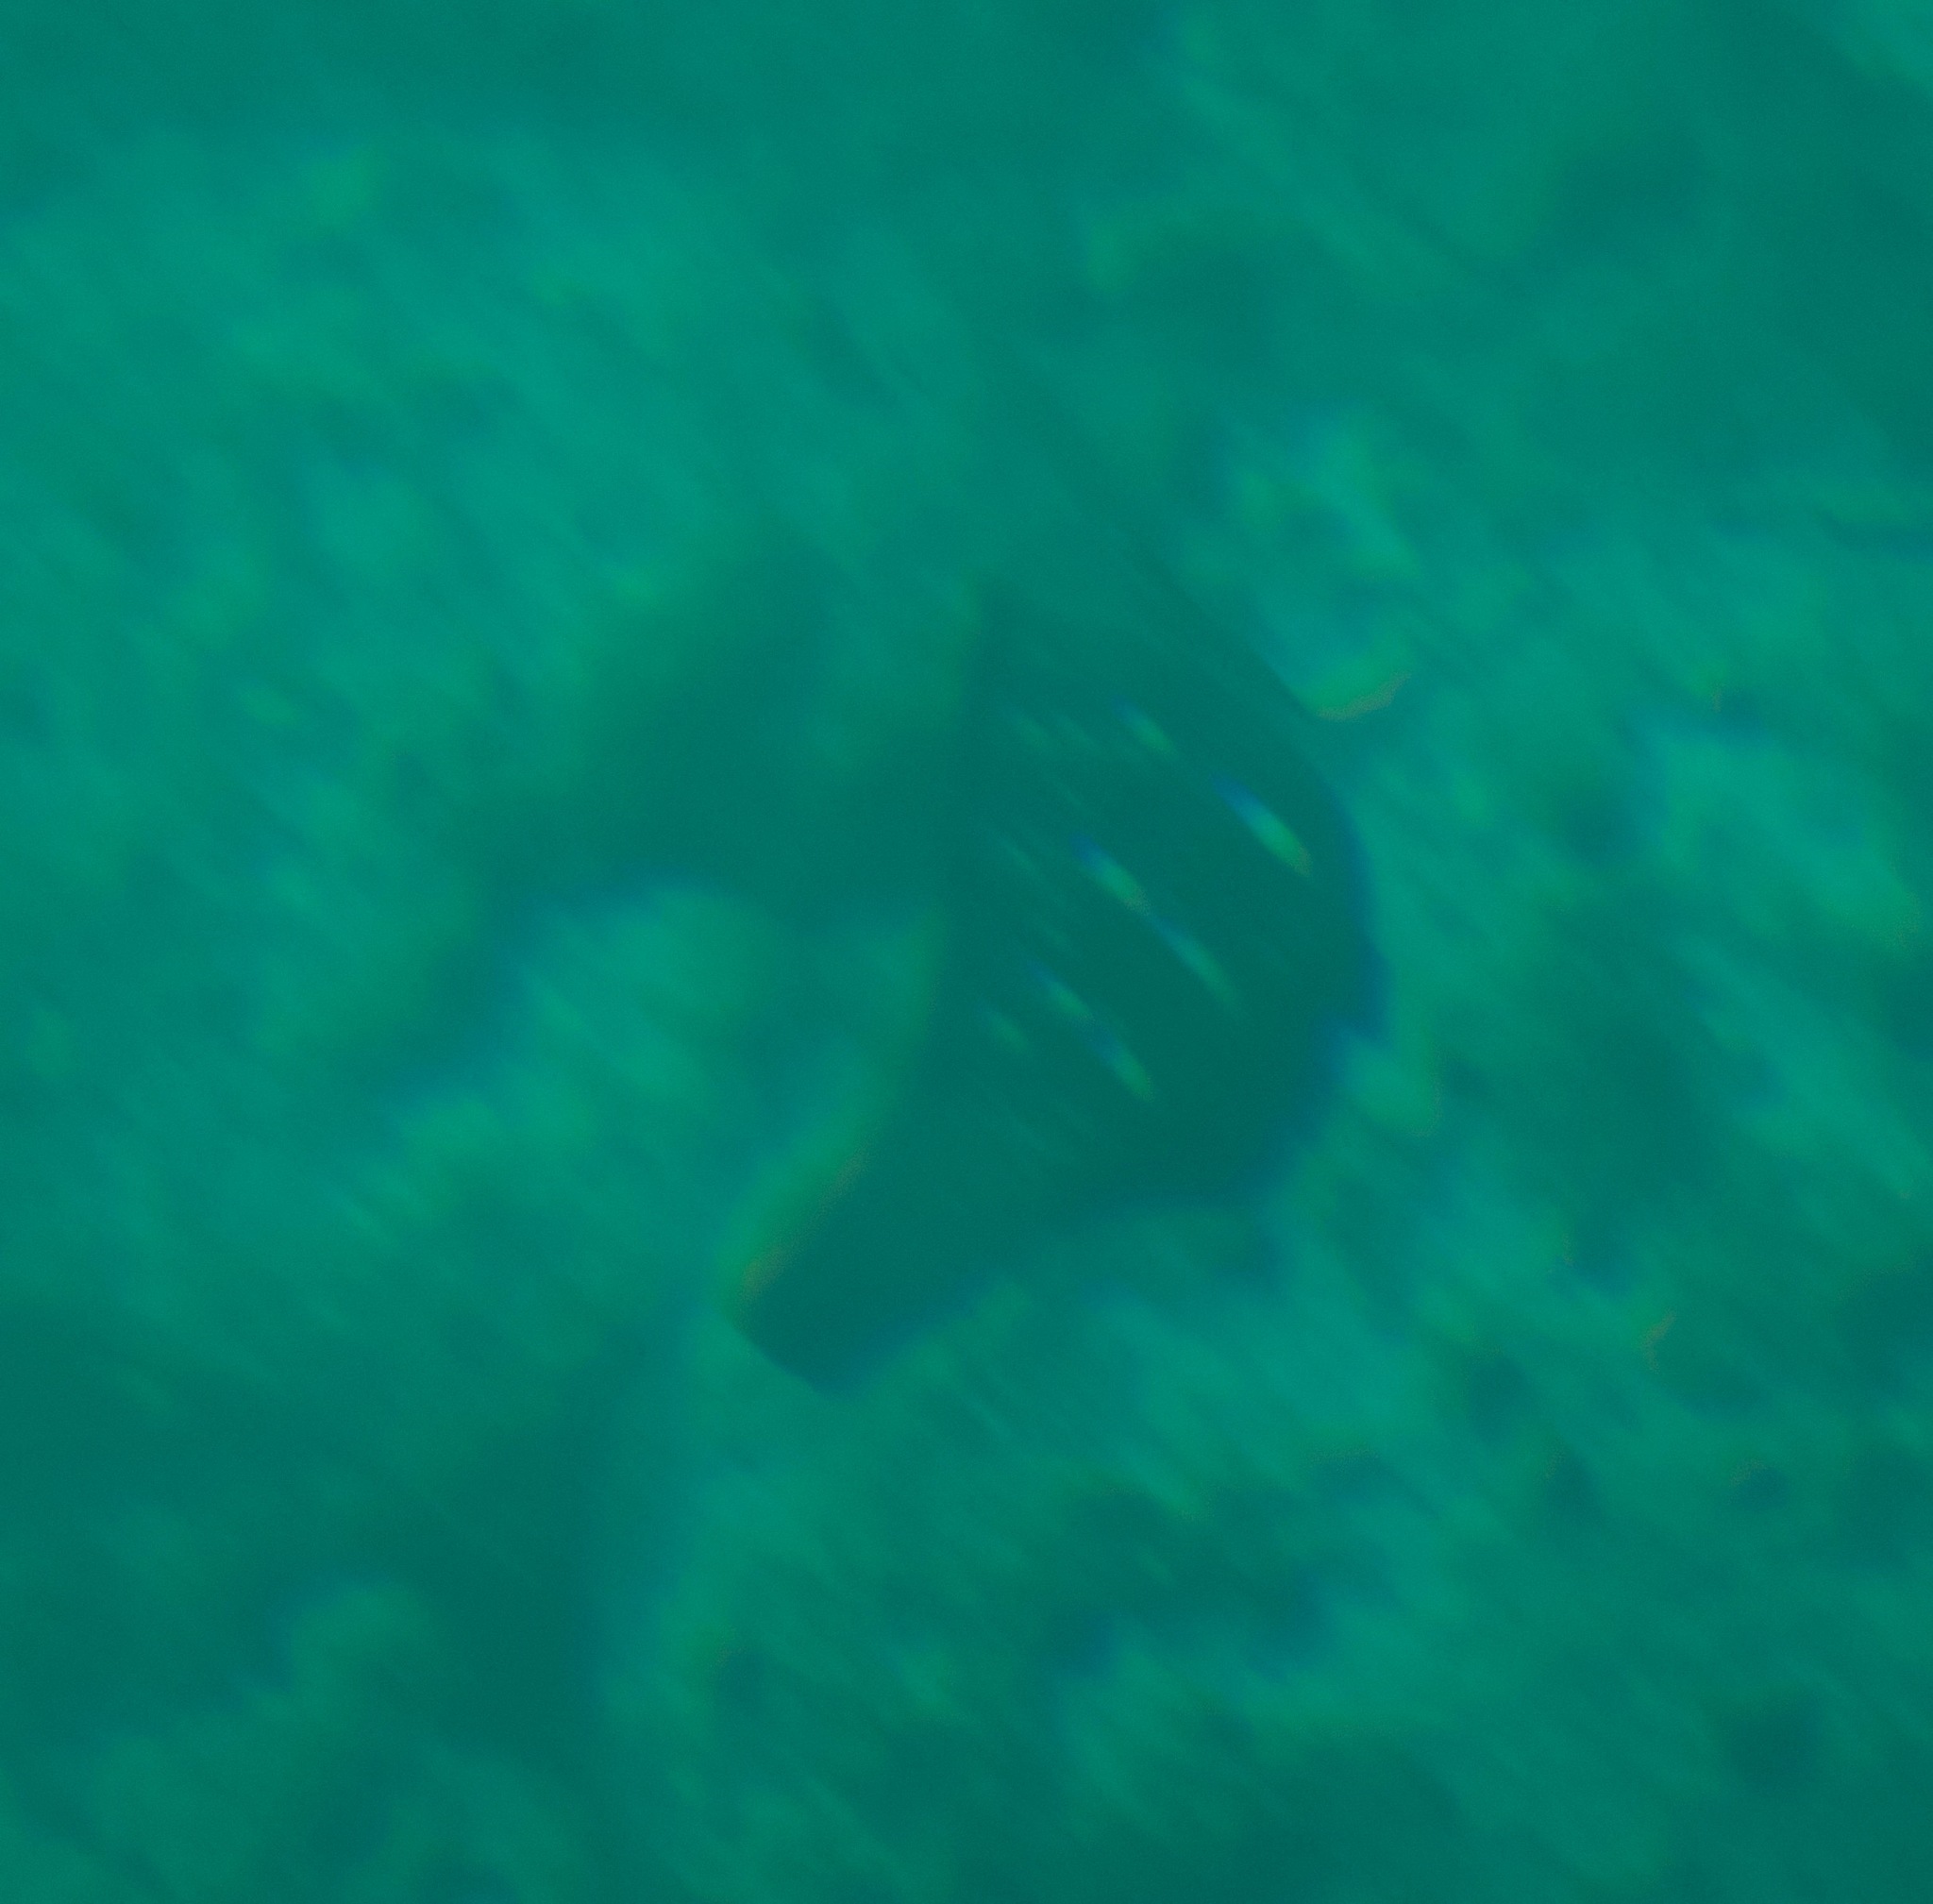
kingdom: Animalia
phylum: Chordata
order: Perciformes
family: Scaridae
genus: Chlorurus
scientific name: Chlorurus sordidus
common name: Bullethead parrotfish
